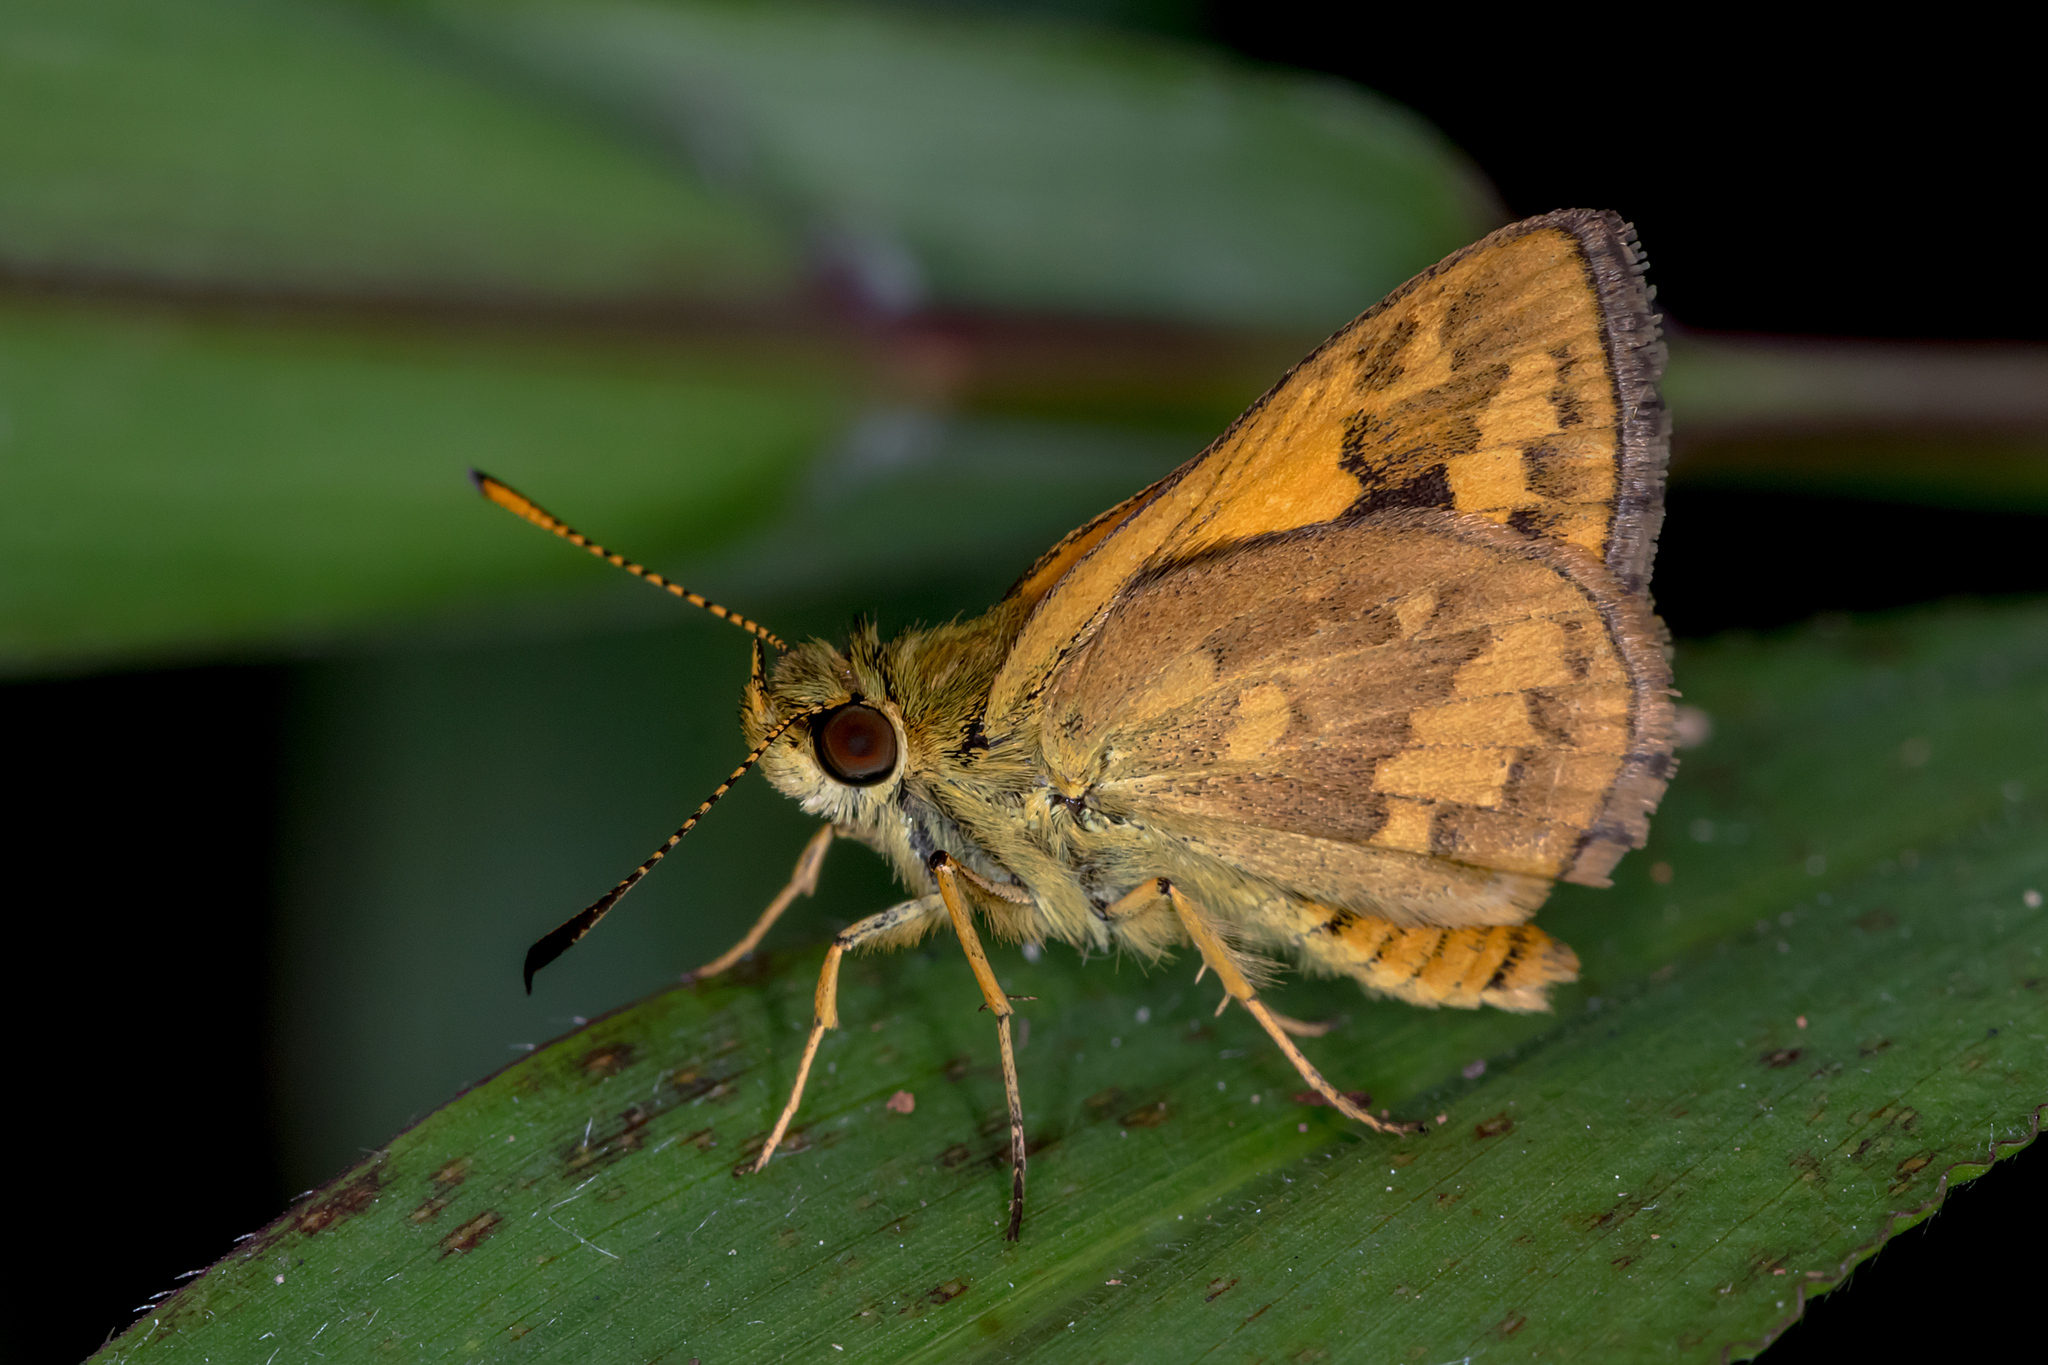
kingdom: Animalia
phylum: Arthropoda
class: Insecta
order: Lepidoptera
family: Hesperiidae
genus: Suniana
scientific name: Suniana sunias
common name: Wide-brand grass-dart
